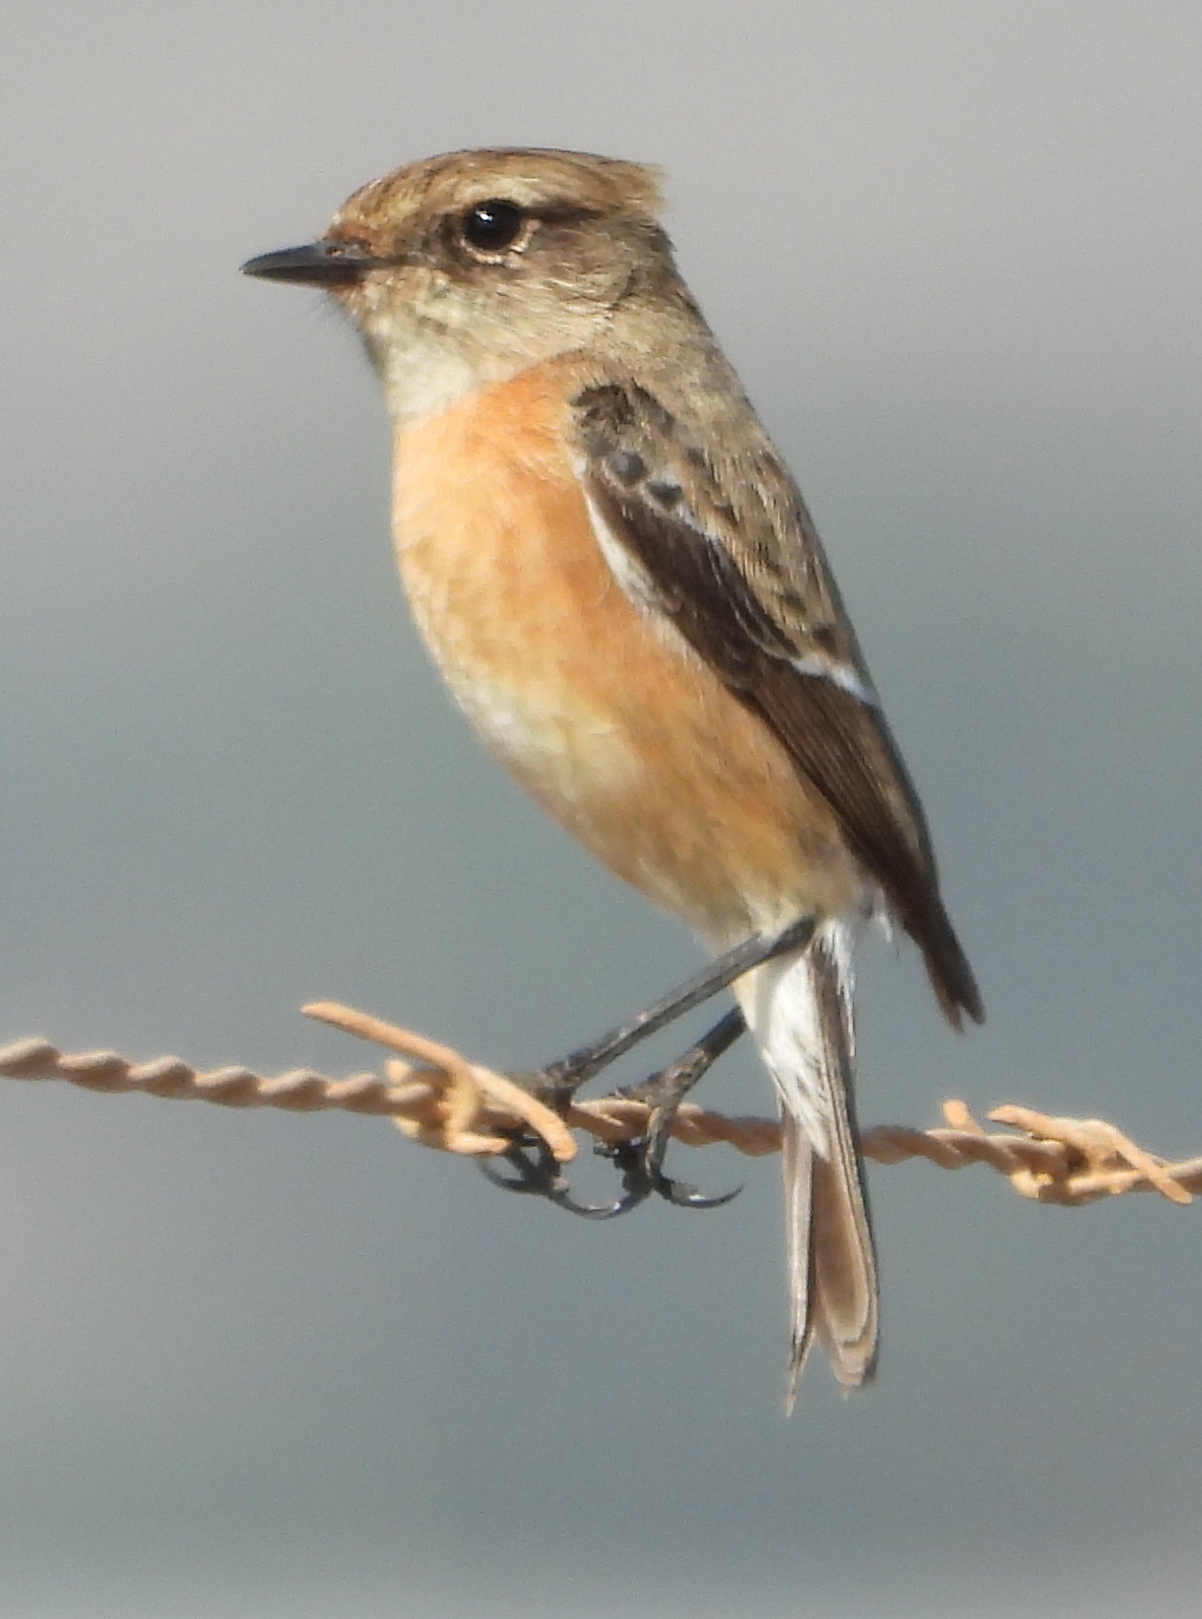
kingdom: Animalia
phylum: Chordata
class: Aves
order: Passeriformes
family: Muscicapidae
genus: Saxicola
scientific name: Saxicola torquatus
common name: African stonechat
